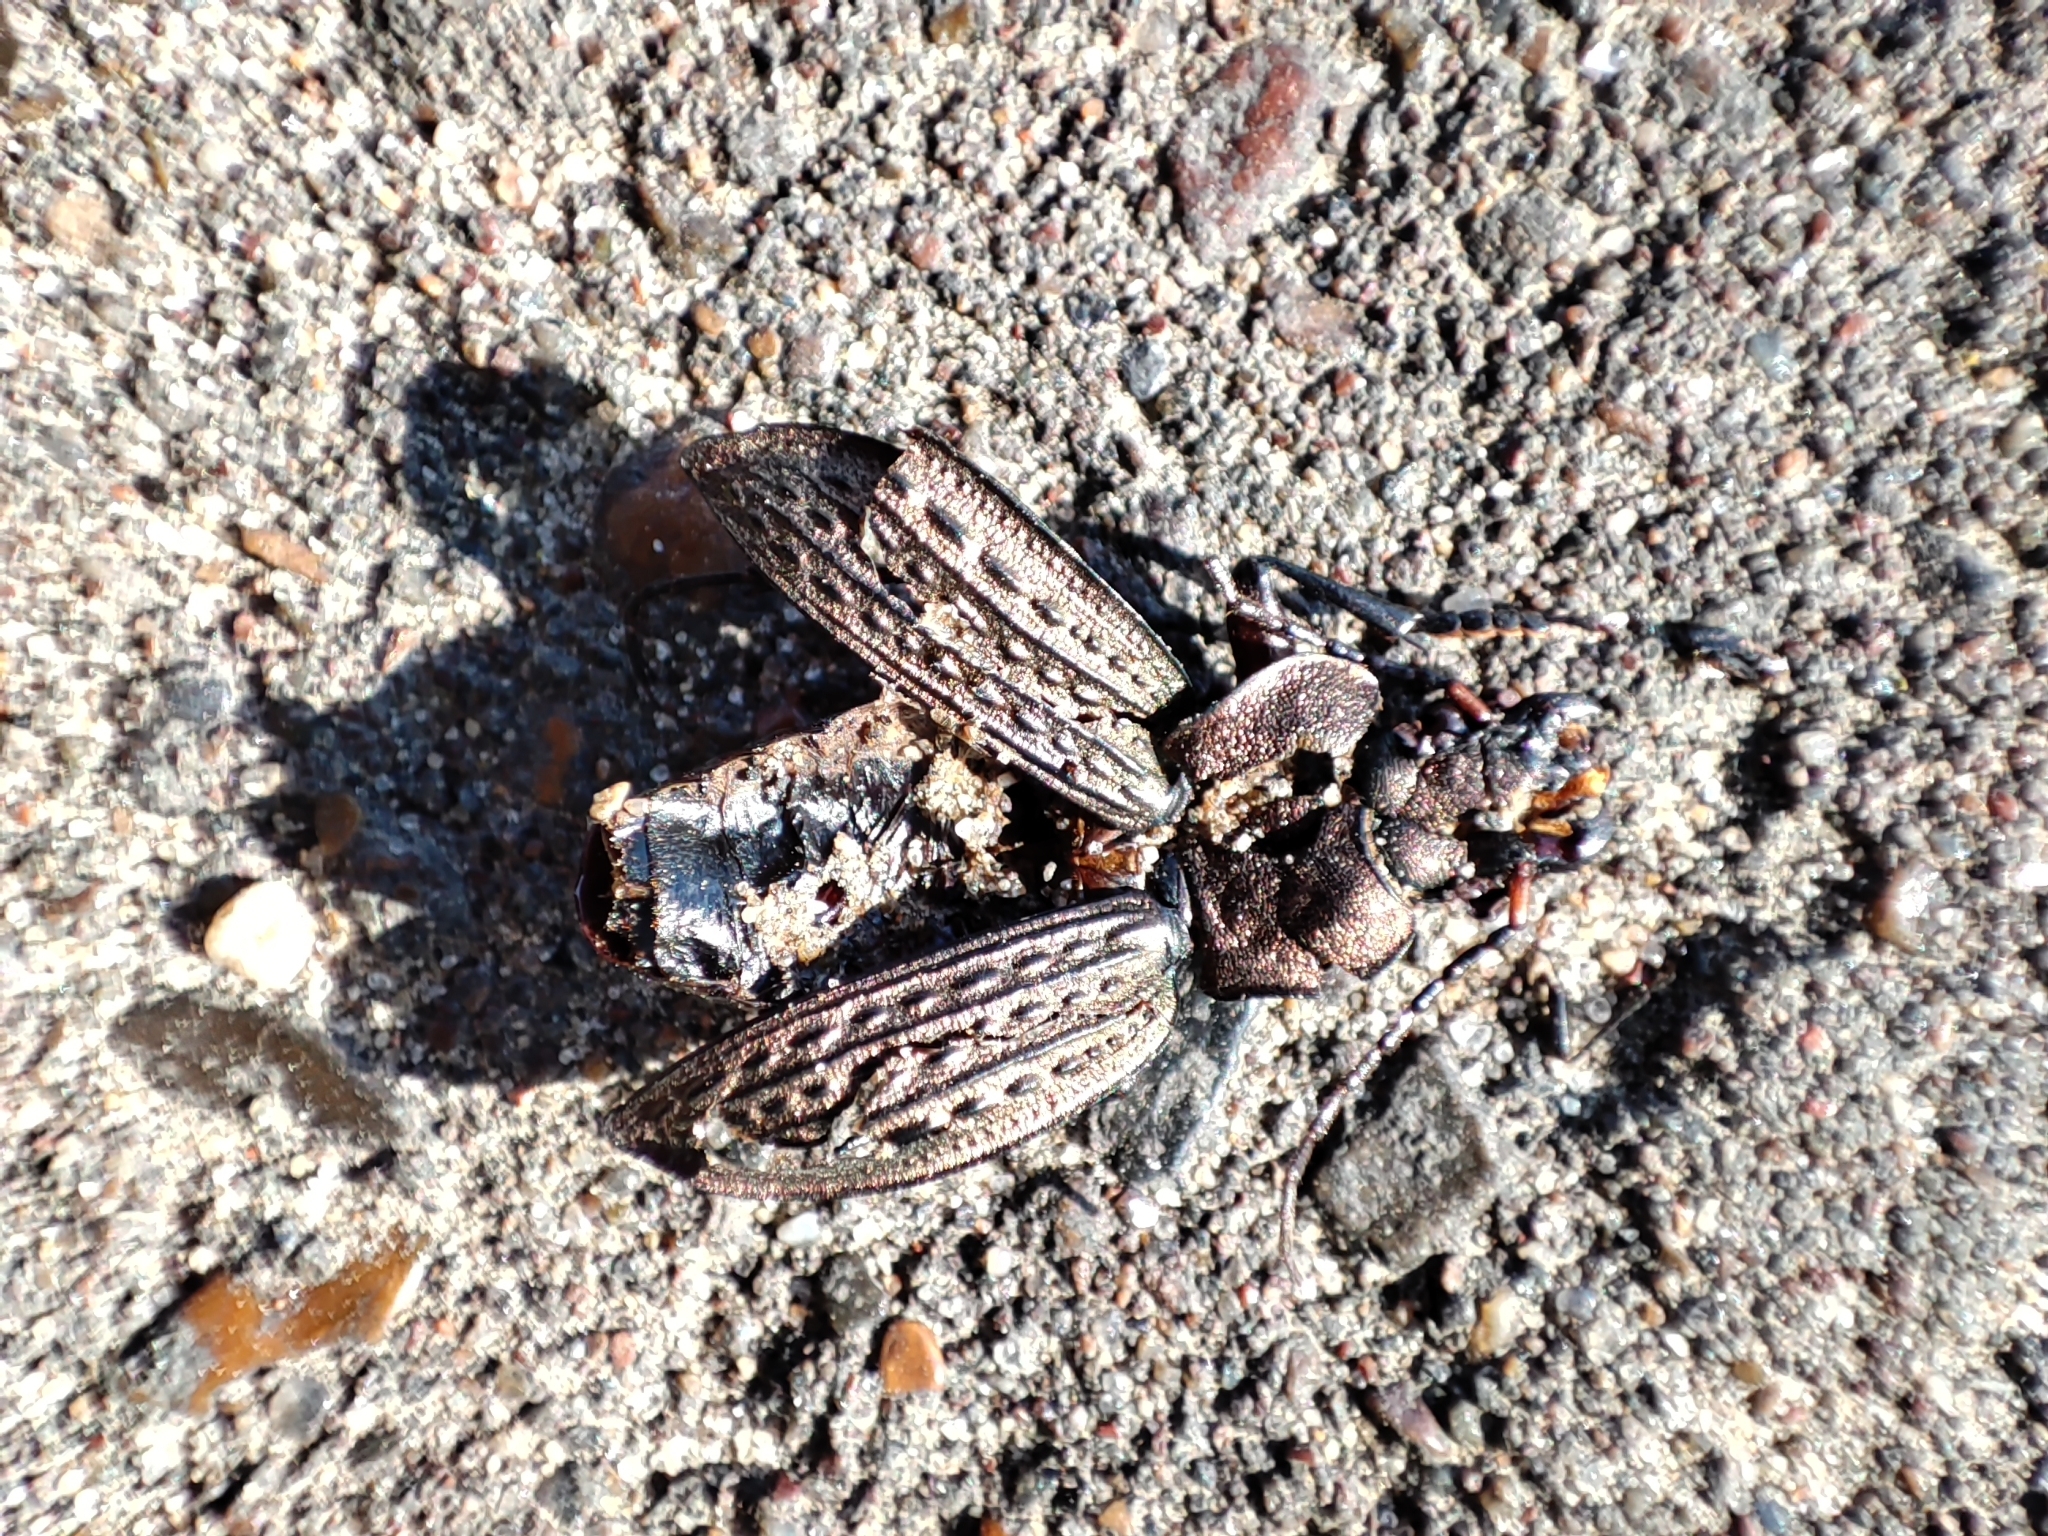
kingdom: Animalia
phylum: Arthropoda
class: Insecta
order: Coleoptera
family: Carabidae
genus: Carabus
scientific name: Carabus cancellatus
